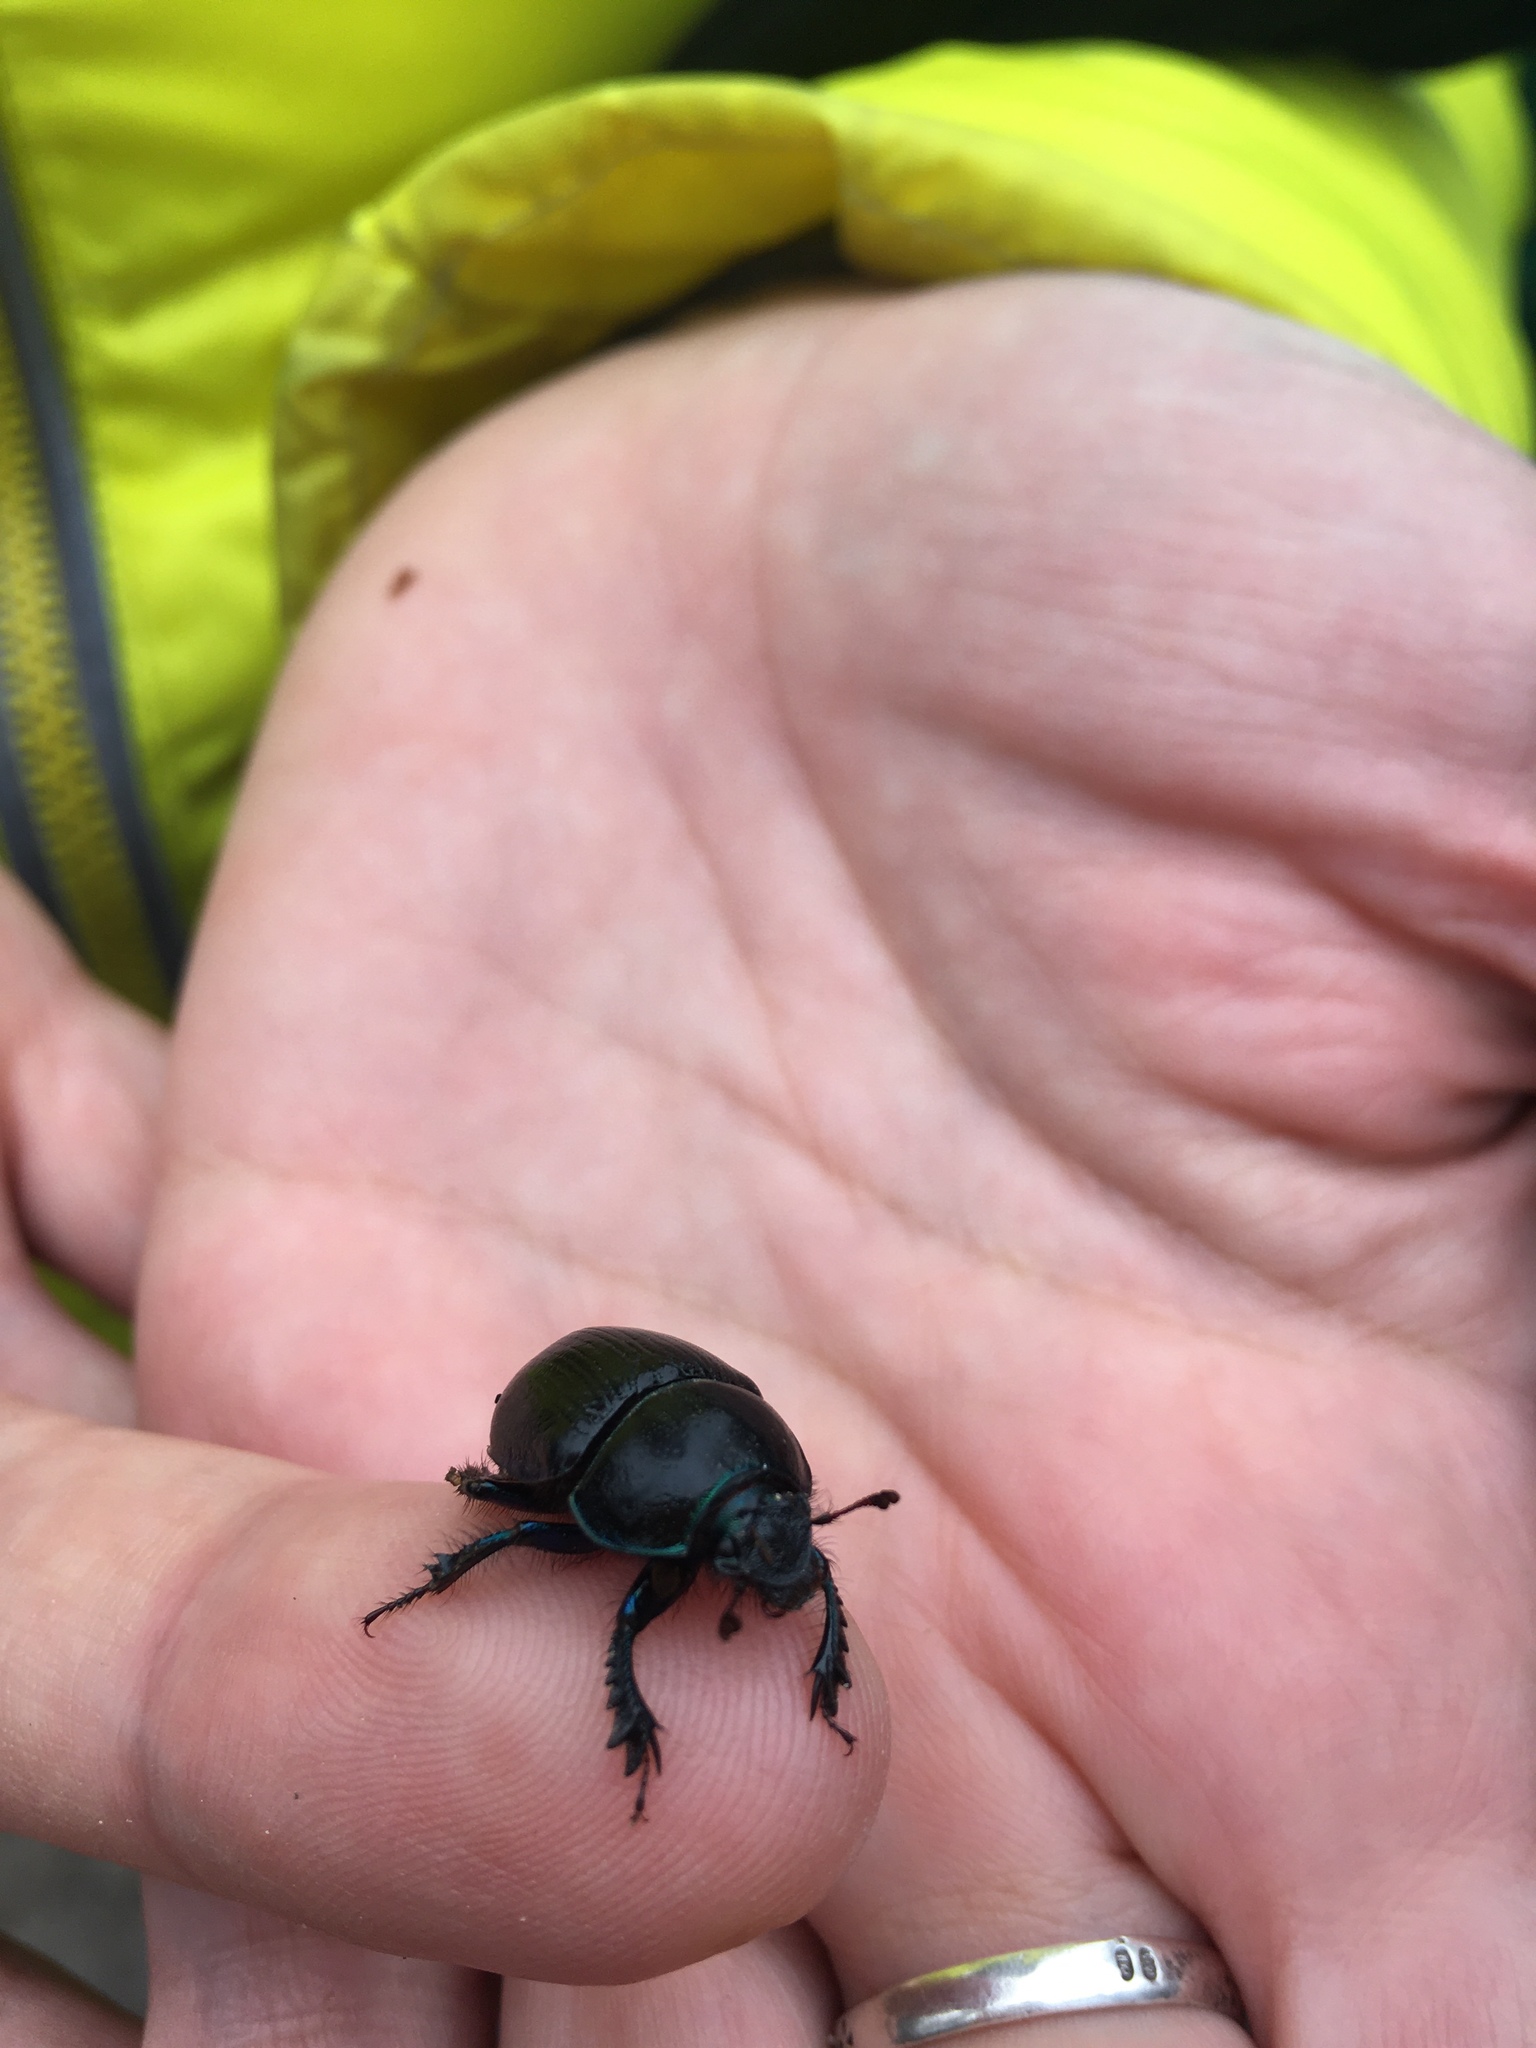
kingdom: Animalia
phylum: Arthropoda
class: Insecta
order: Coleoptera
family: Geotrupidae
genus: Anoplotrupes
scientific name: Anoplotrupes stercorosus
